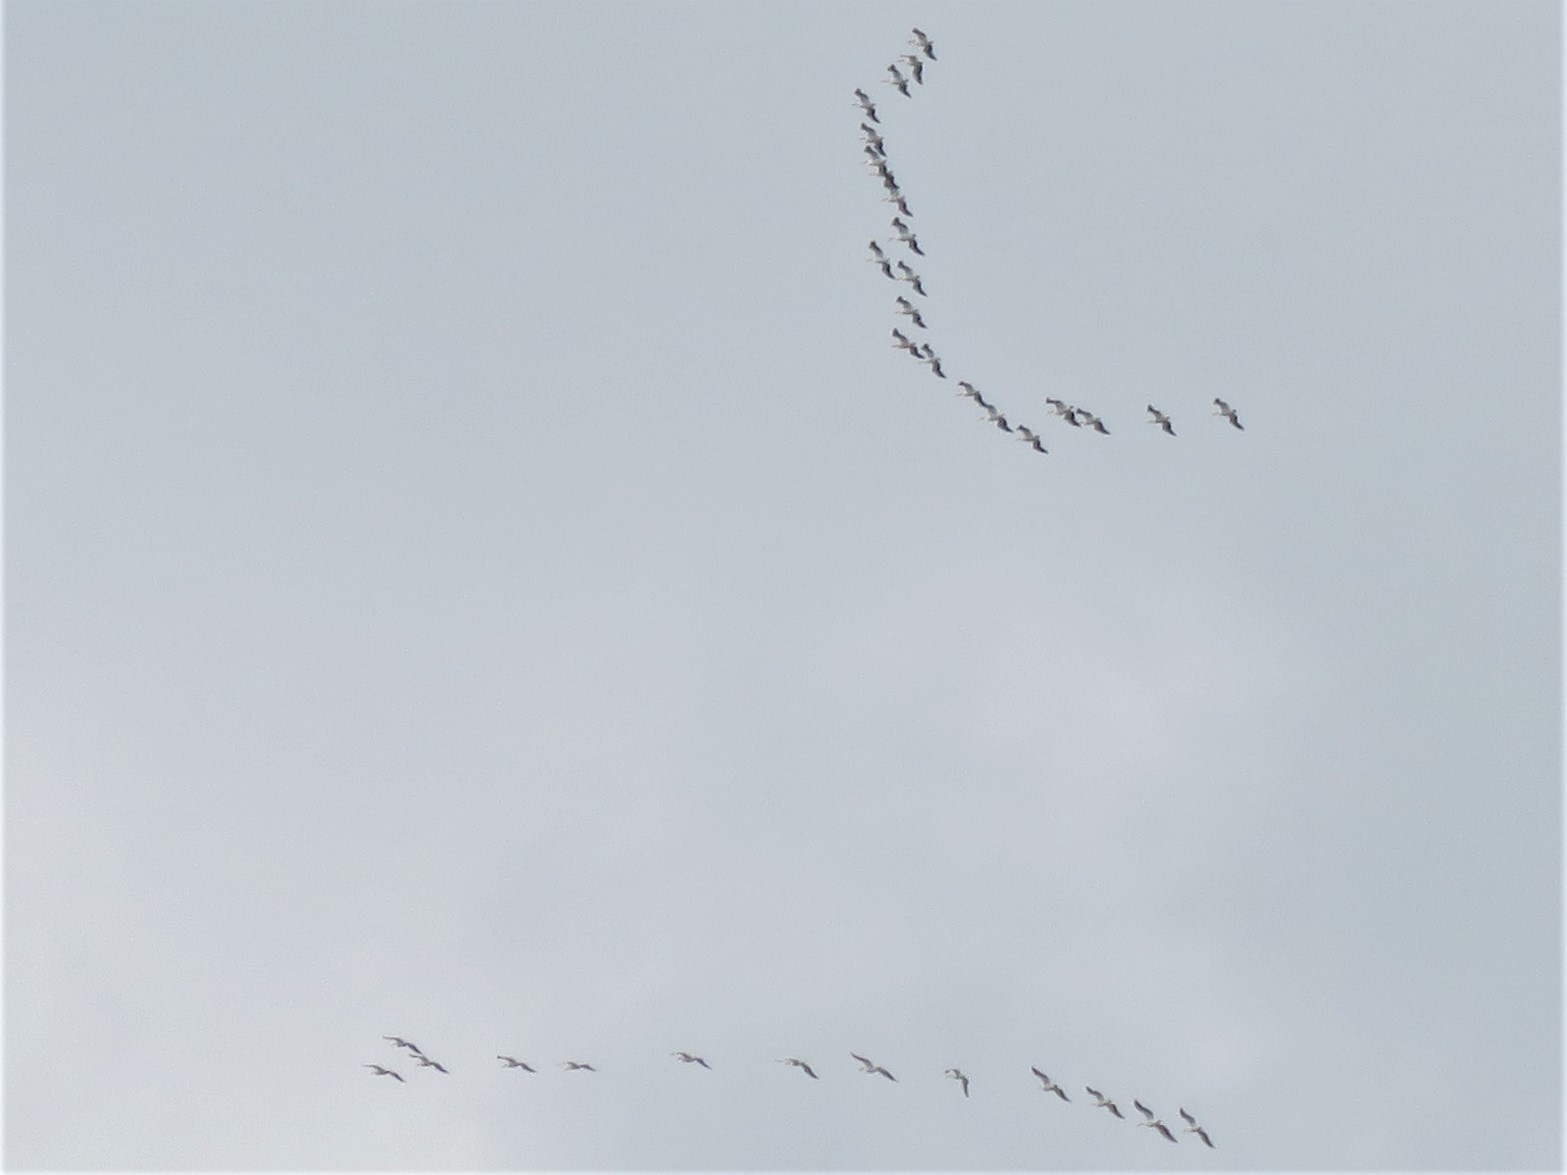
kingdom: Animalia
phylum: Chordata
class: Aves
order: Pelecaniformes
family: Pelecanidae
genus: Pelecanus
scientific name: Pelecanus erythrorhynchos
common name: American white pelican
